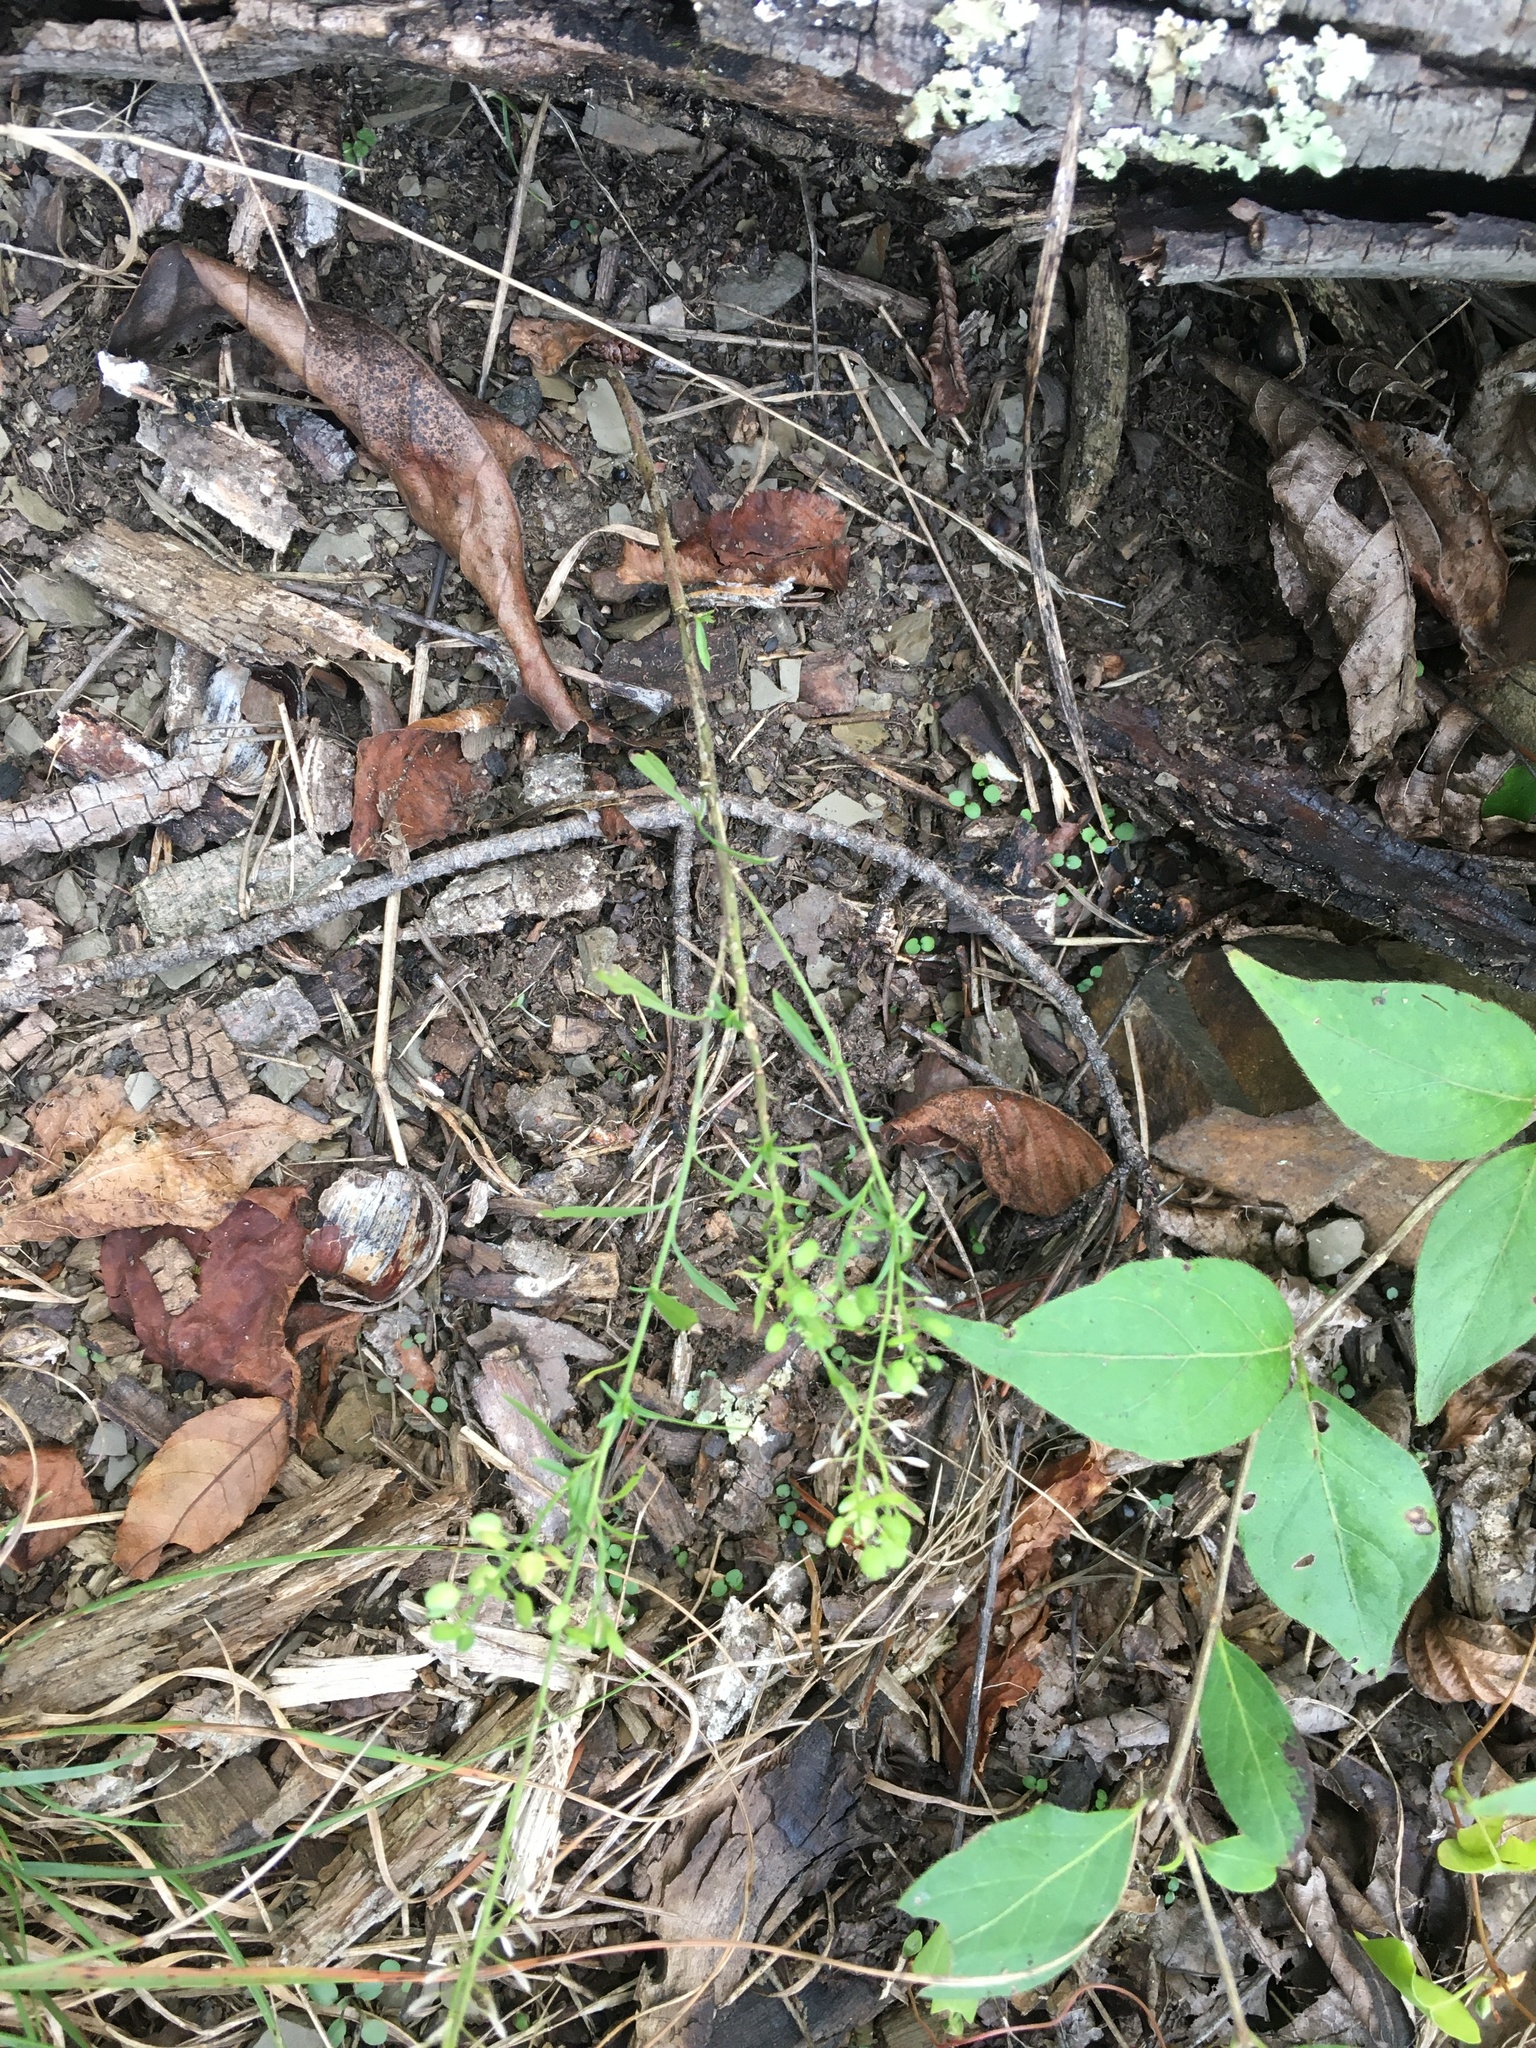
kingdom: Plantae
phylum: Tracheophyta
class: Magnoliopsida
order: Brassicales
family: Brassicaceae
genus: Lepidium
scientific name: Lepidium virginicum
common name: Least pepperwort
